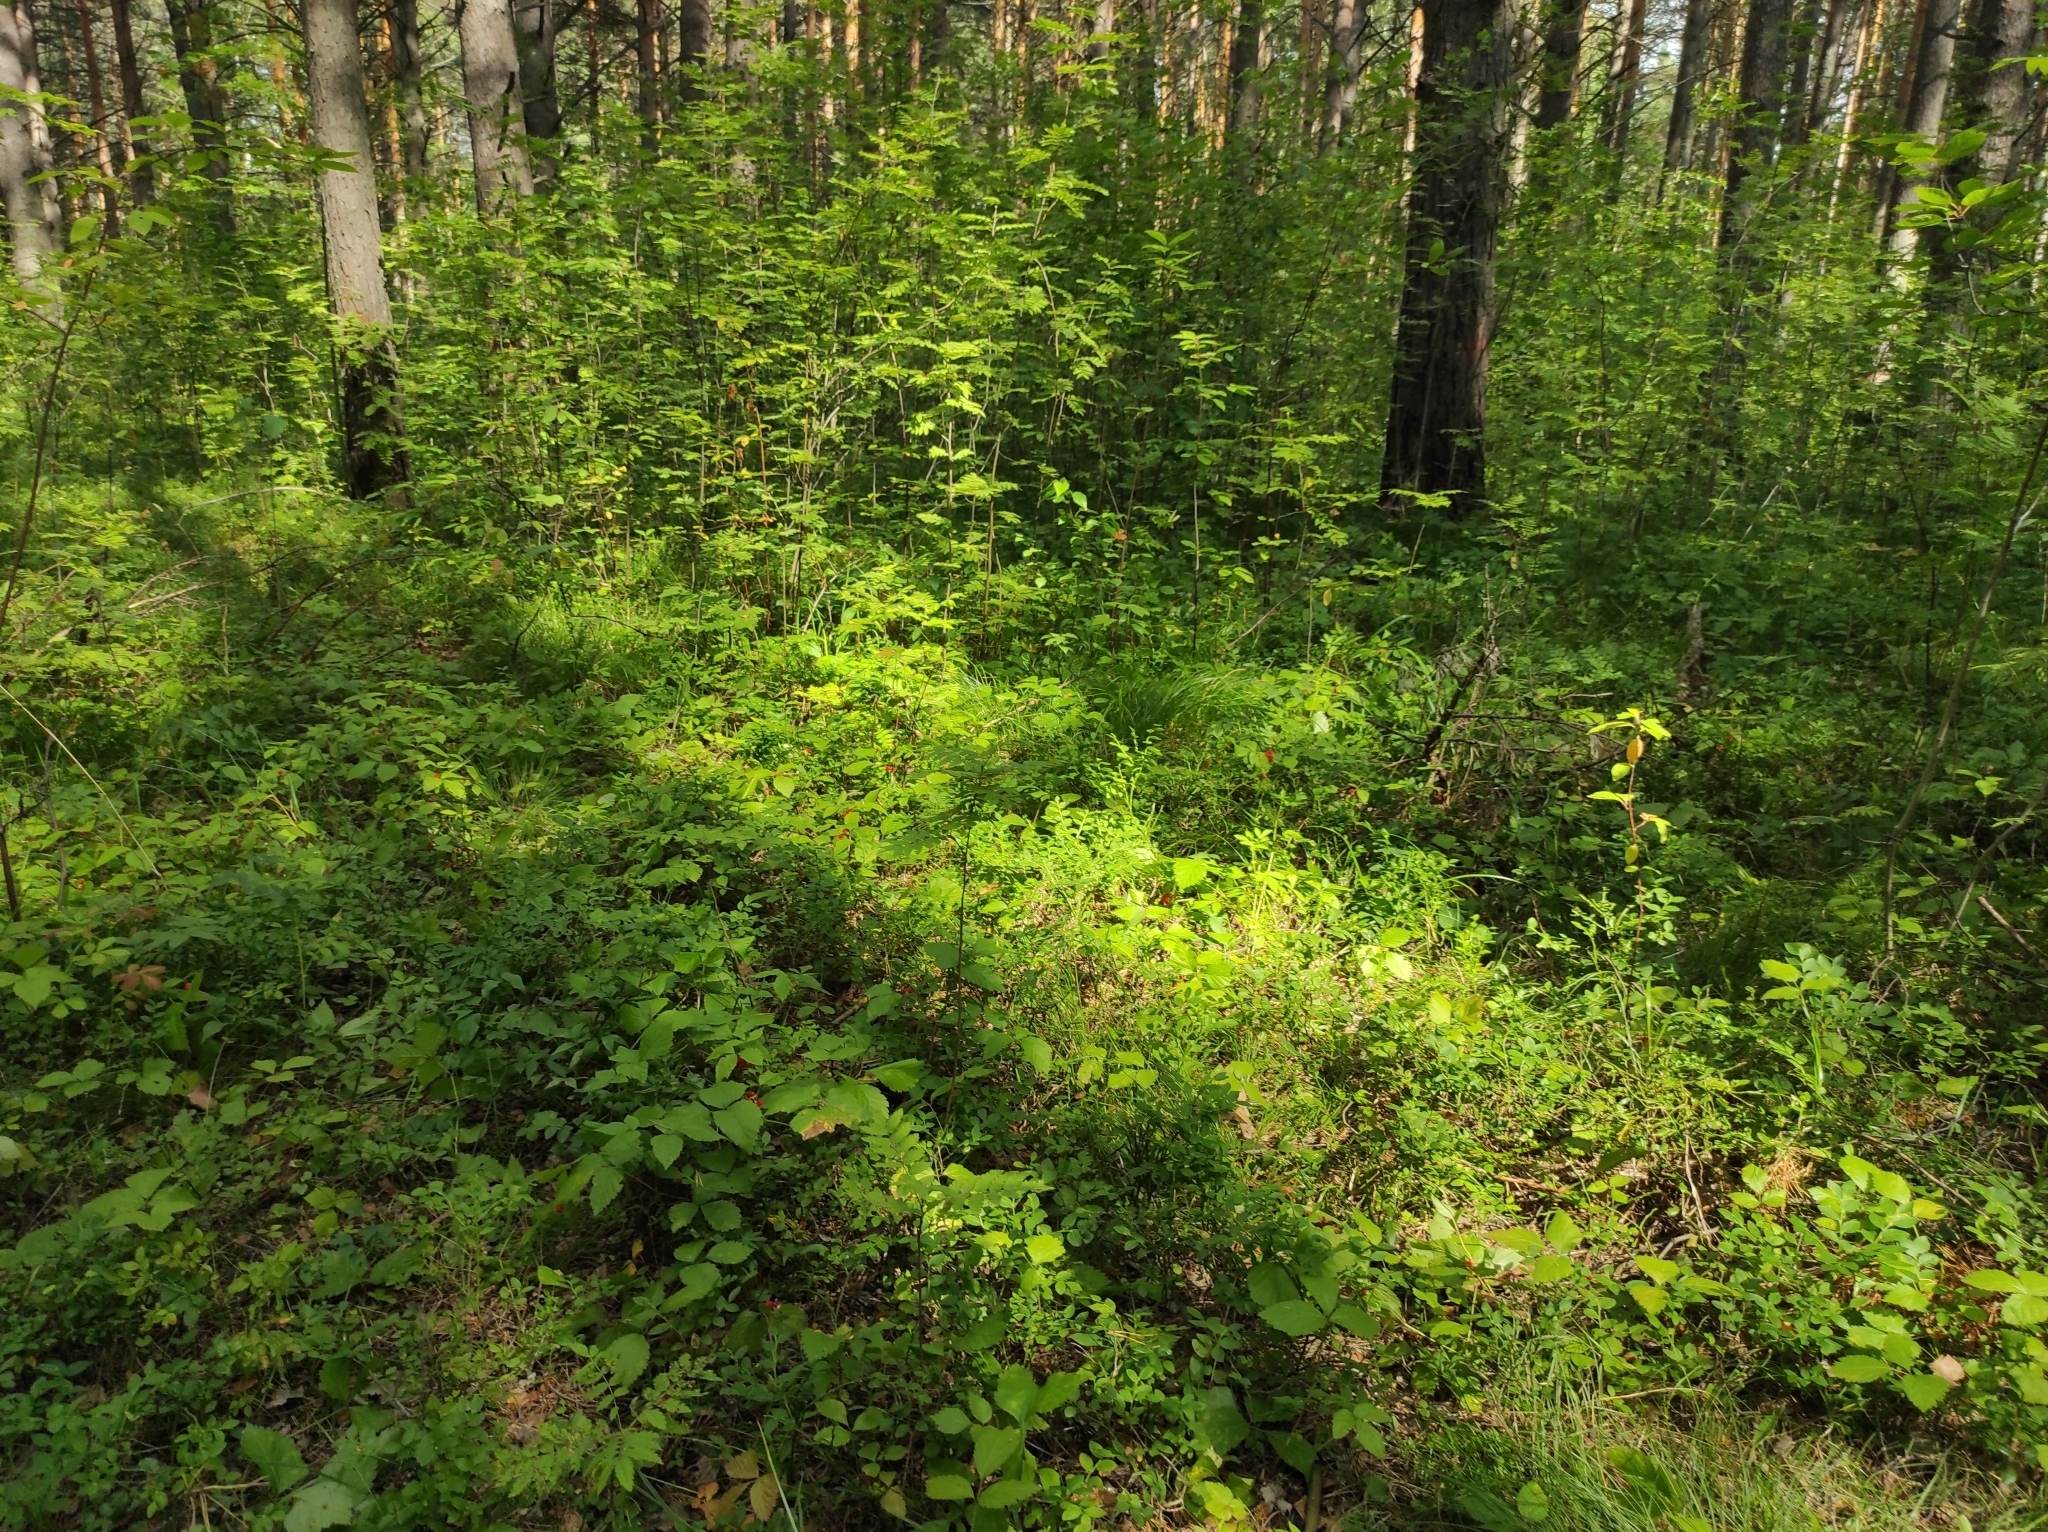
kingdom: Plantae
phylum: Tracheophyta
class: Magnoliopsida
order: Rosales
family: Rosaceae
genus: Rubus
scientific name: Rubus saxatilis
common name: Stone bramble
